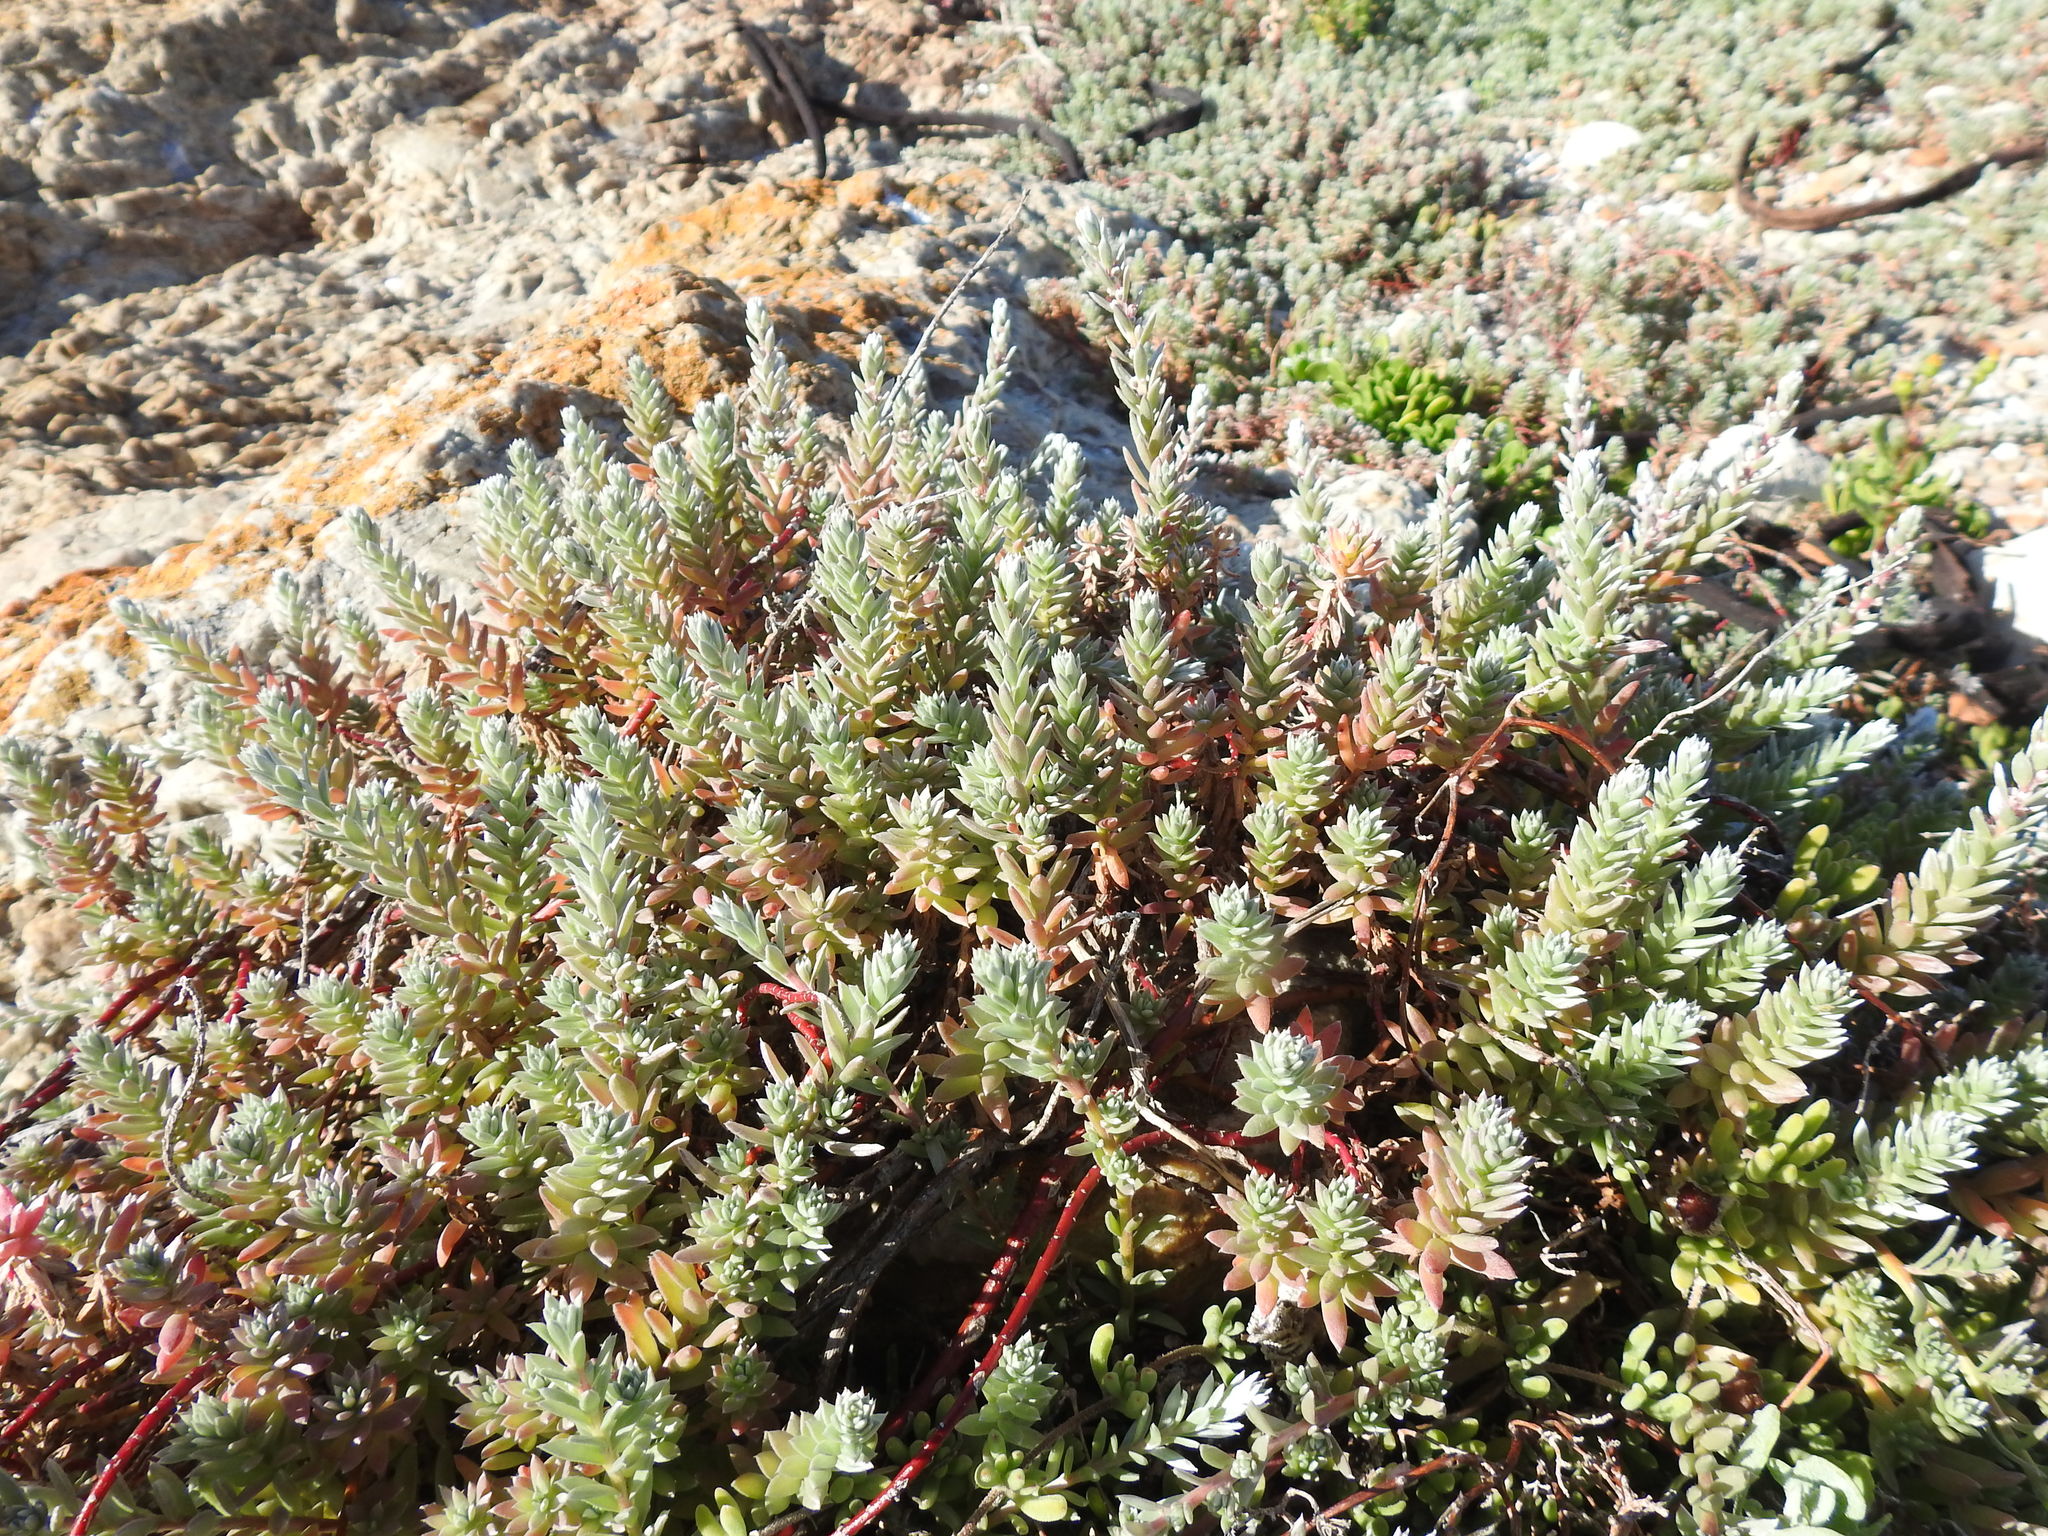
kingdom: Plantae
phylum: Tracheophyta
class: Magnoliopsida
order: Caryophyllales
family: Amaranthaceae
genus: Chenolea
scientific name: Chenolea diffusa
